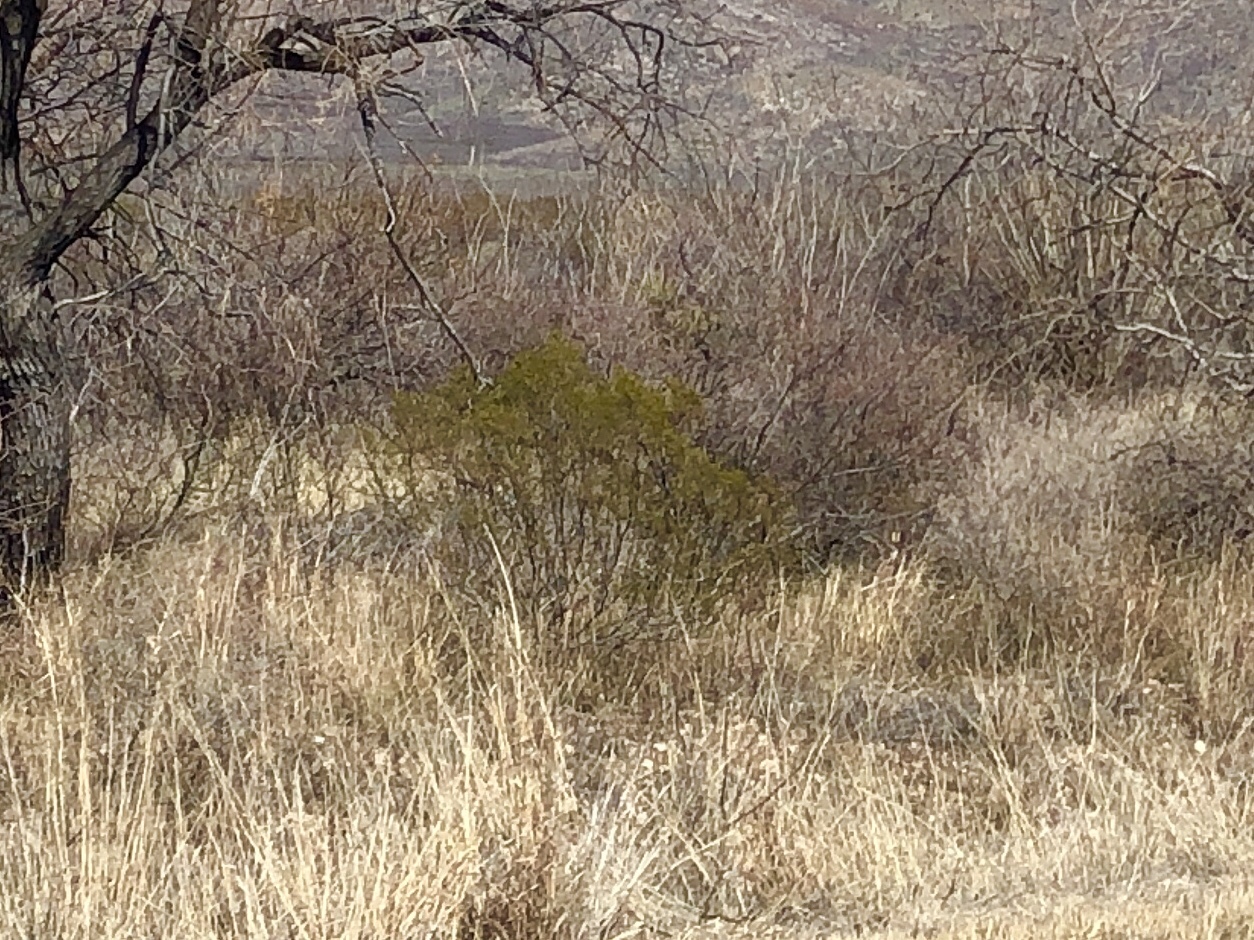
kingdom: Plantae
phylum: Tracheophyta
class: Magnoliopsida
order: Zygophyllales
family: Zygophyllaceae
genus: Larrea
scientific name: Larrea tridentata
